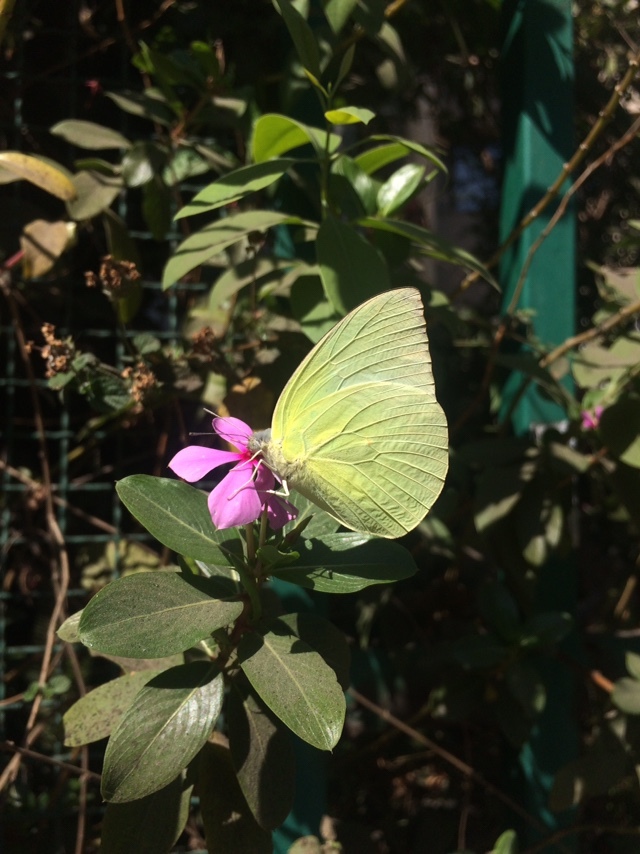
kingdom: Animalia
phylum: Arthropoda
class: Insecta
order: Lepidoptera
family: Pieridae
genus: Catopsilia
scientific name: Catopsilia pomona
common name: Common emigrant
